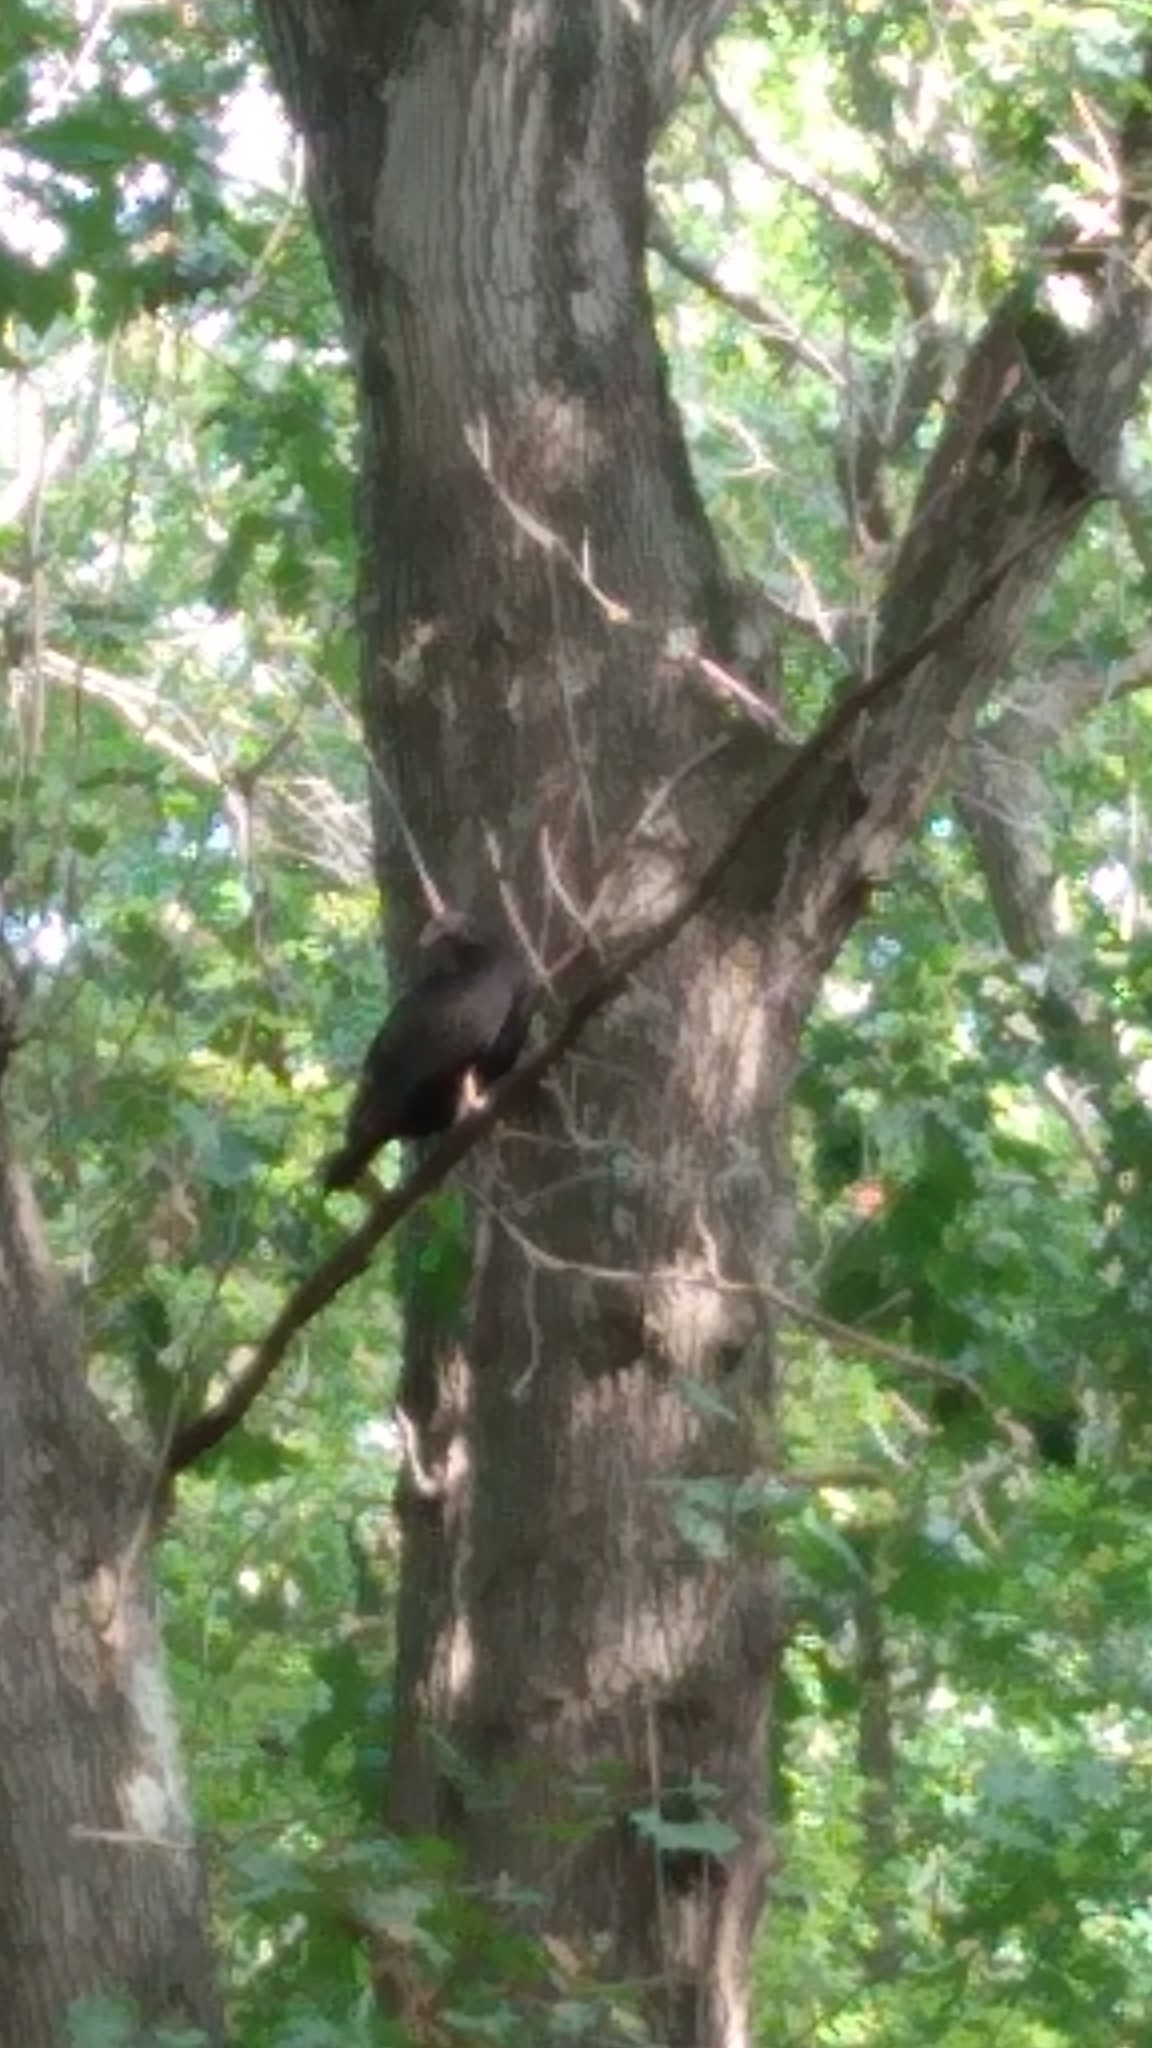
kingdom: Animalia
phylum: Chordata
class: Aves
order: Accipitriformes
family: Cathartidae
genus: Cathartes
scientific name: Cathartes aura
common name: Turkey vulture
